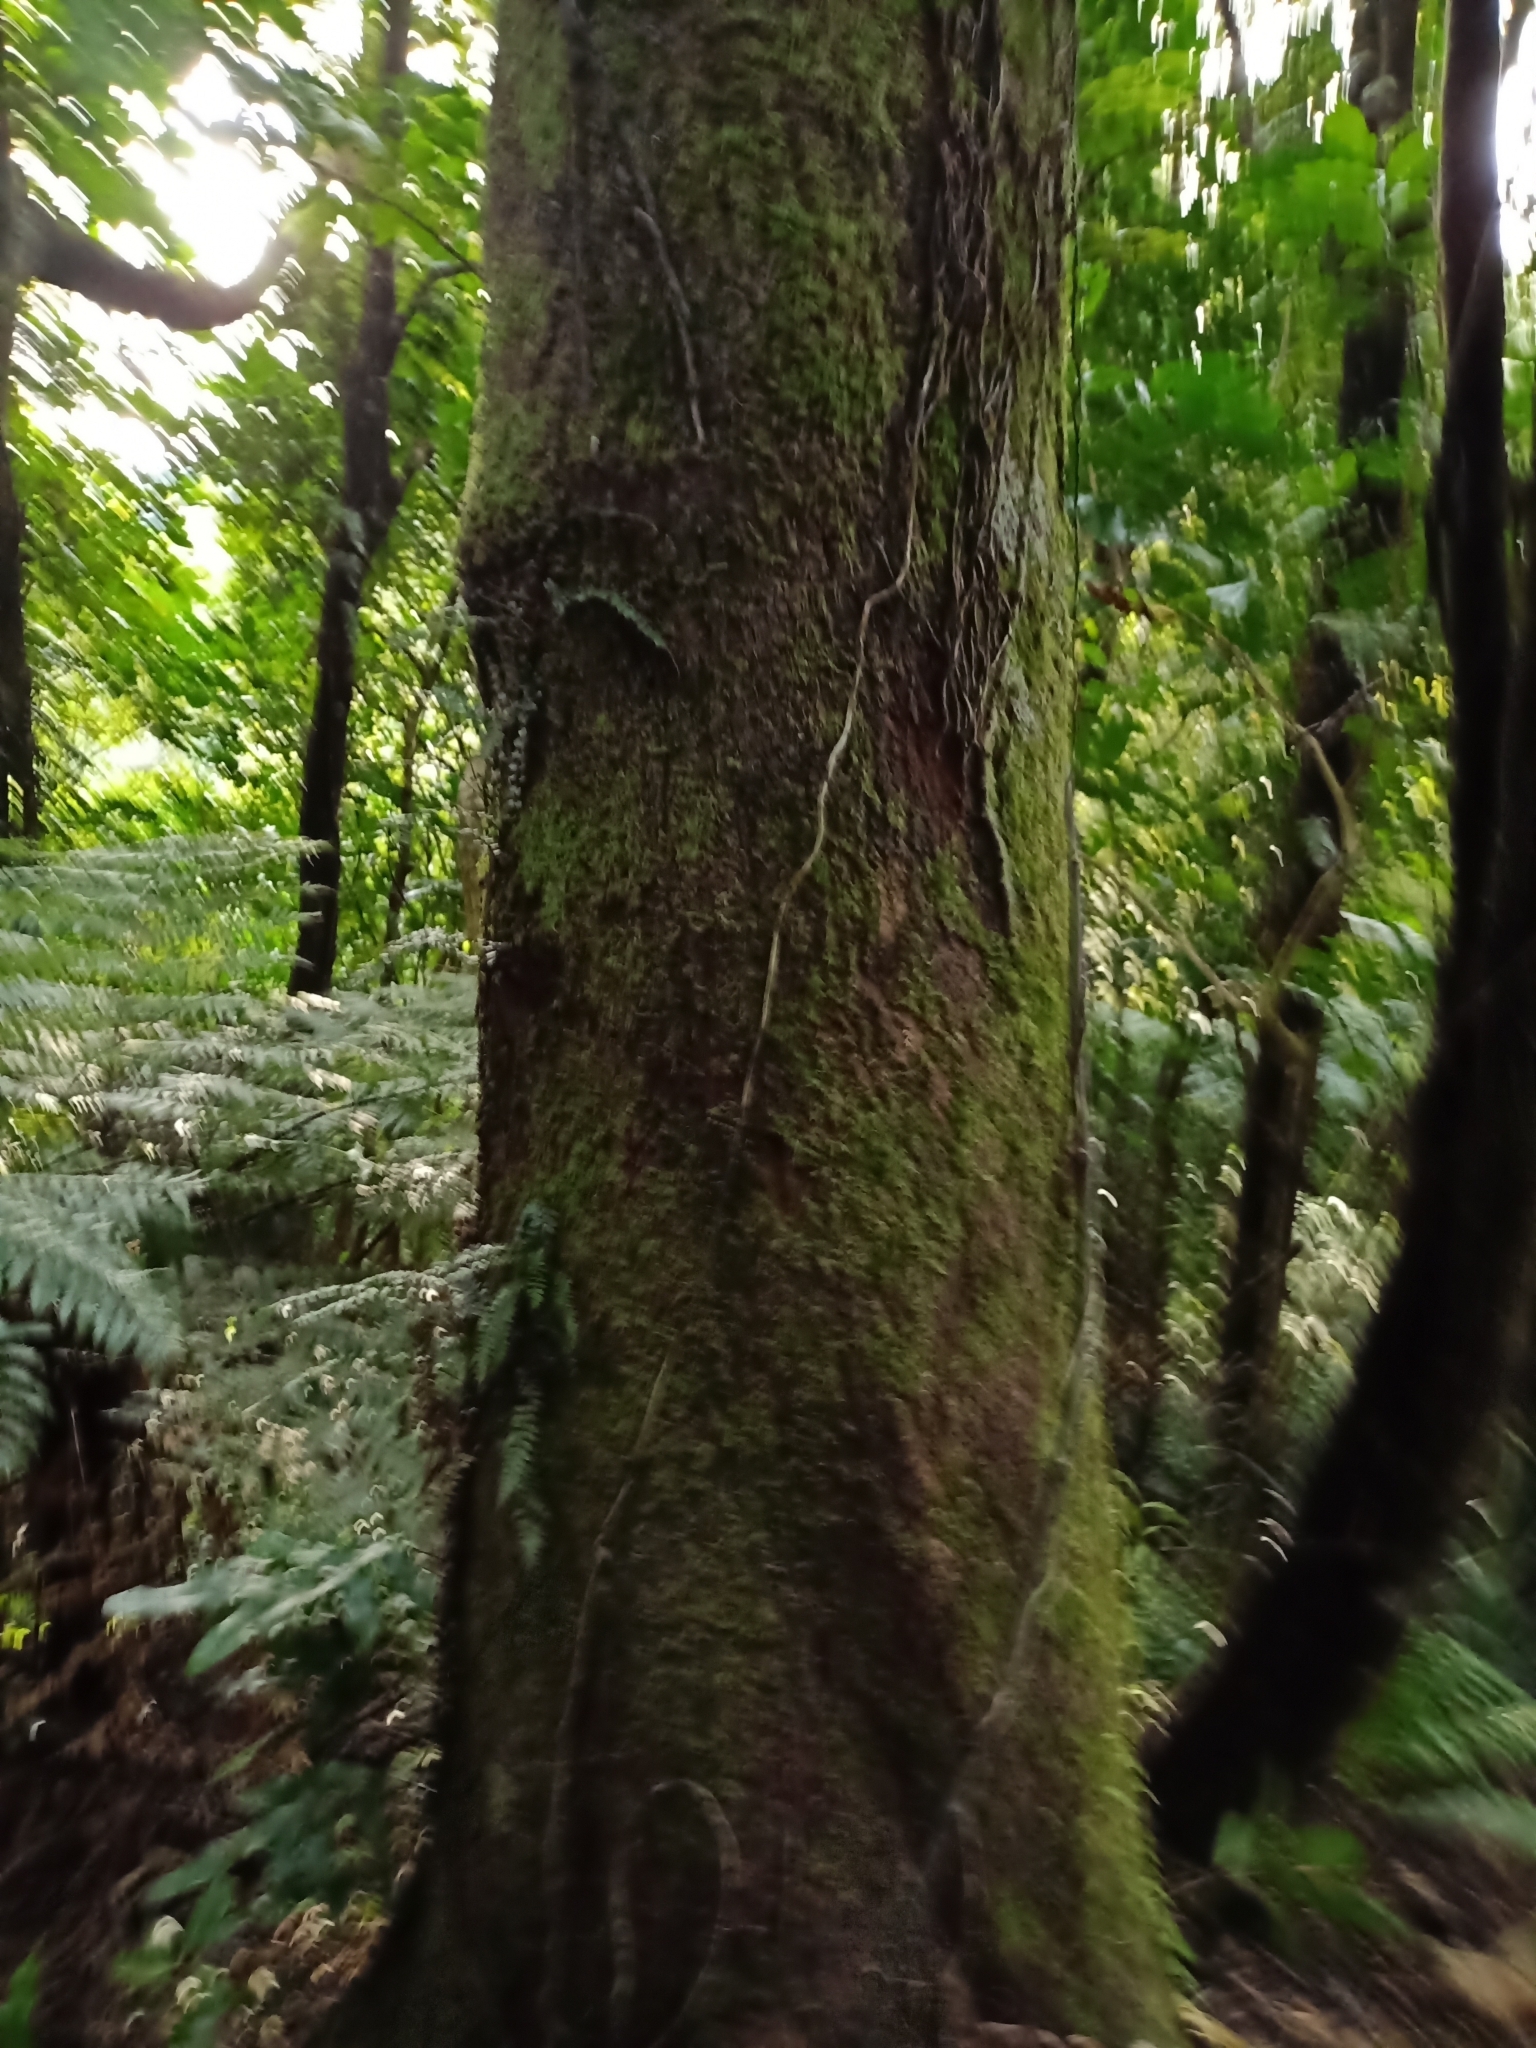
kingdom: Plantae
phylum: Tracheophyta
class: Magnoliopsida
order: Oxalidales
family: Elaeocarpaceae
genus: Elaeocarpus
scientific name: Elaeocarpus dentatus
